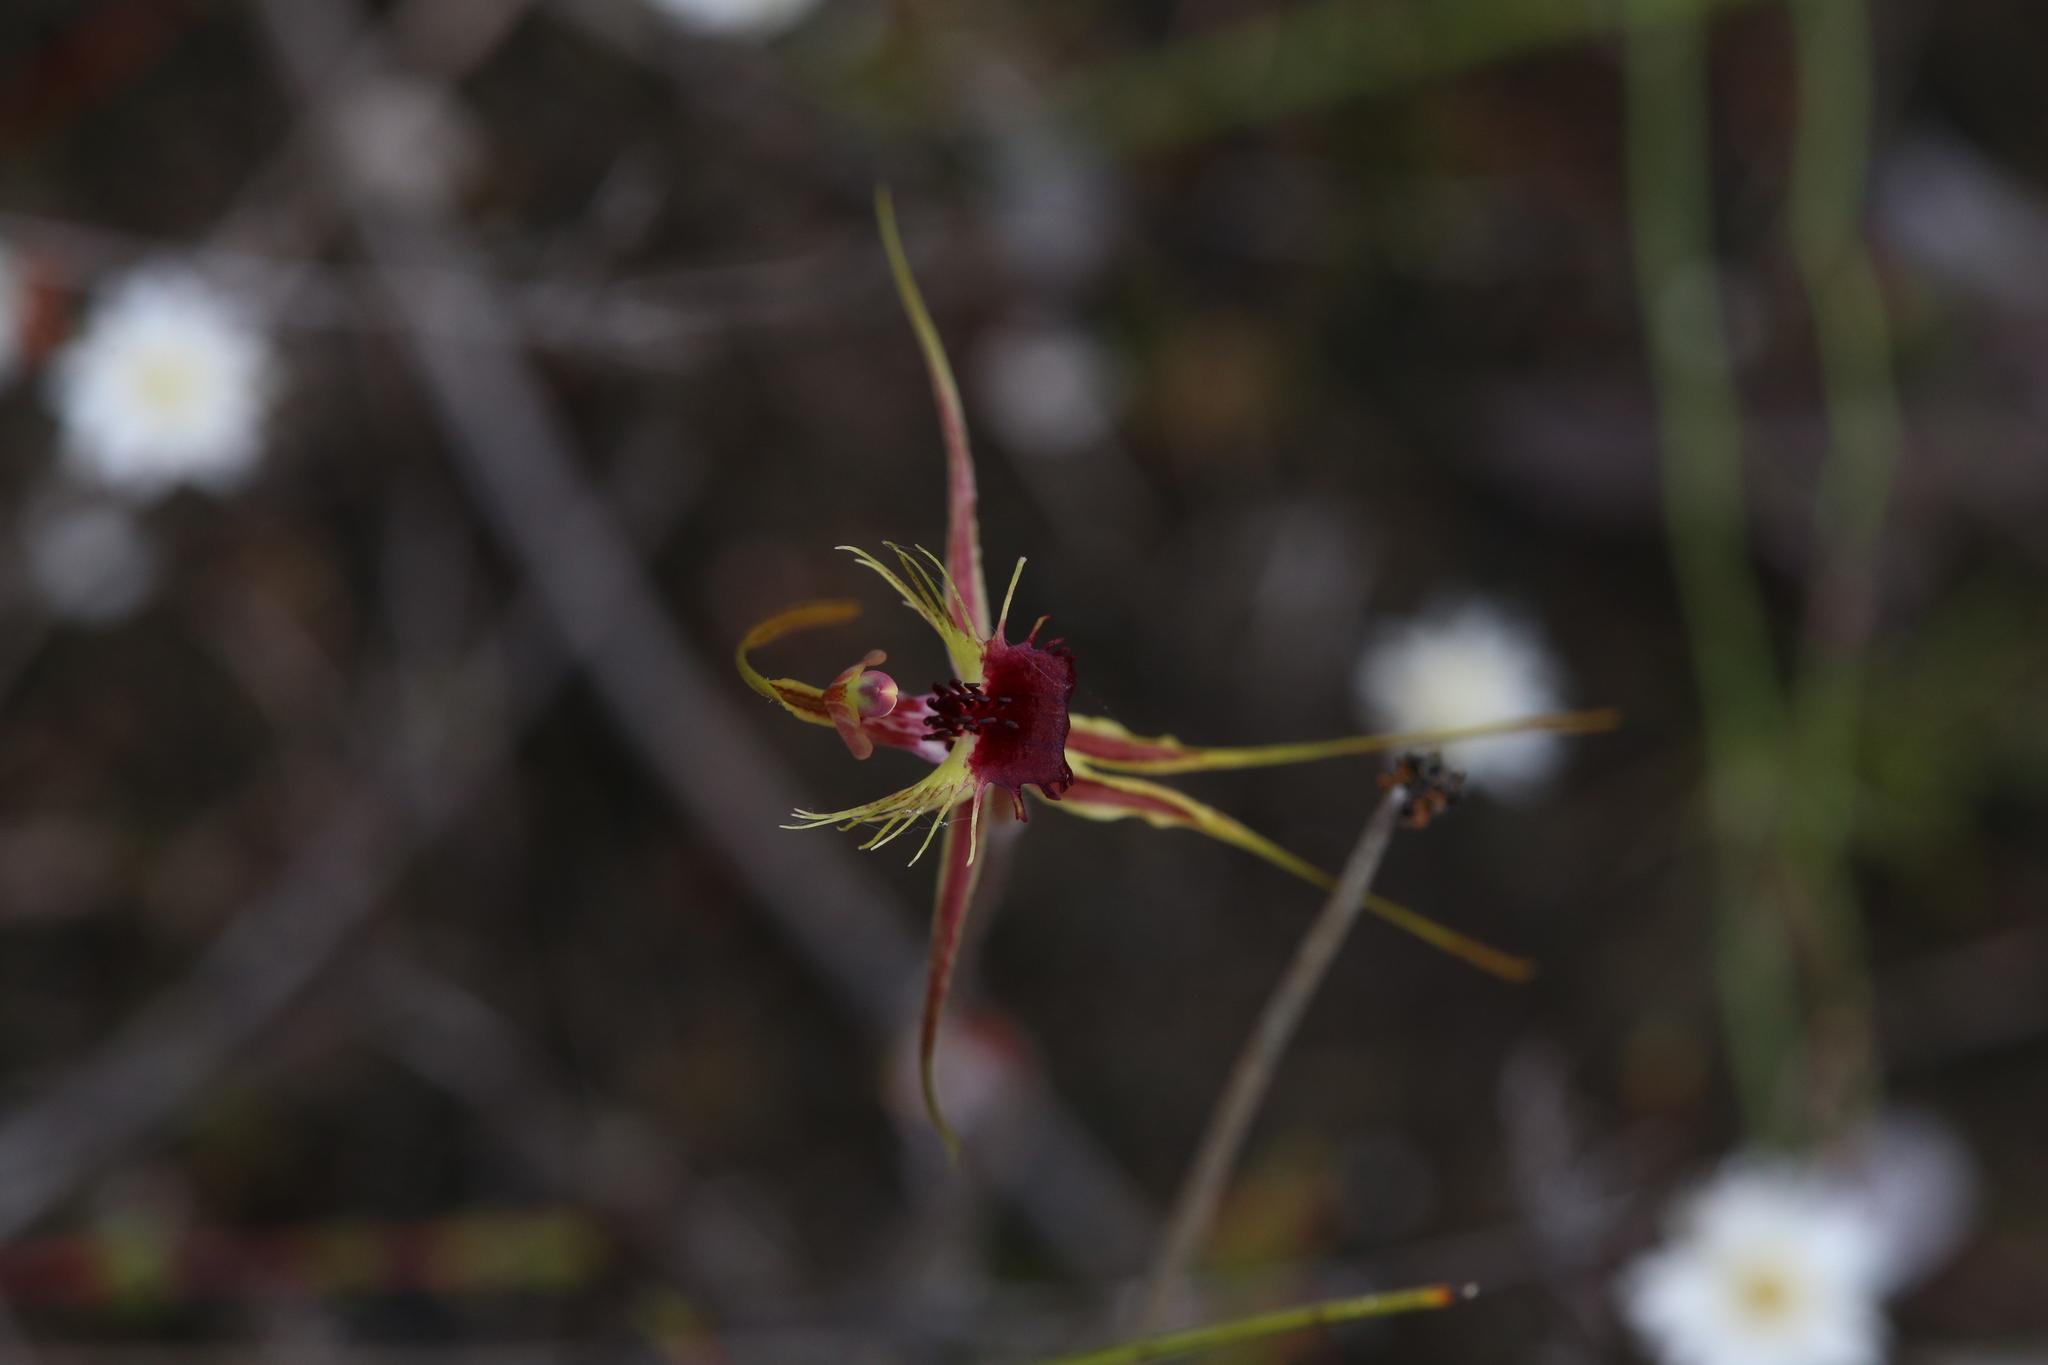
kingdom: Plantae
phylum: Tracheophyta
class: Liliopsida
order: Asparagales
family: Orchidaceae
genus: Caladenia
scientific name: Caladenia radiata
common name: Ray spider orchid
